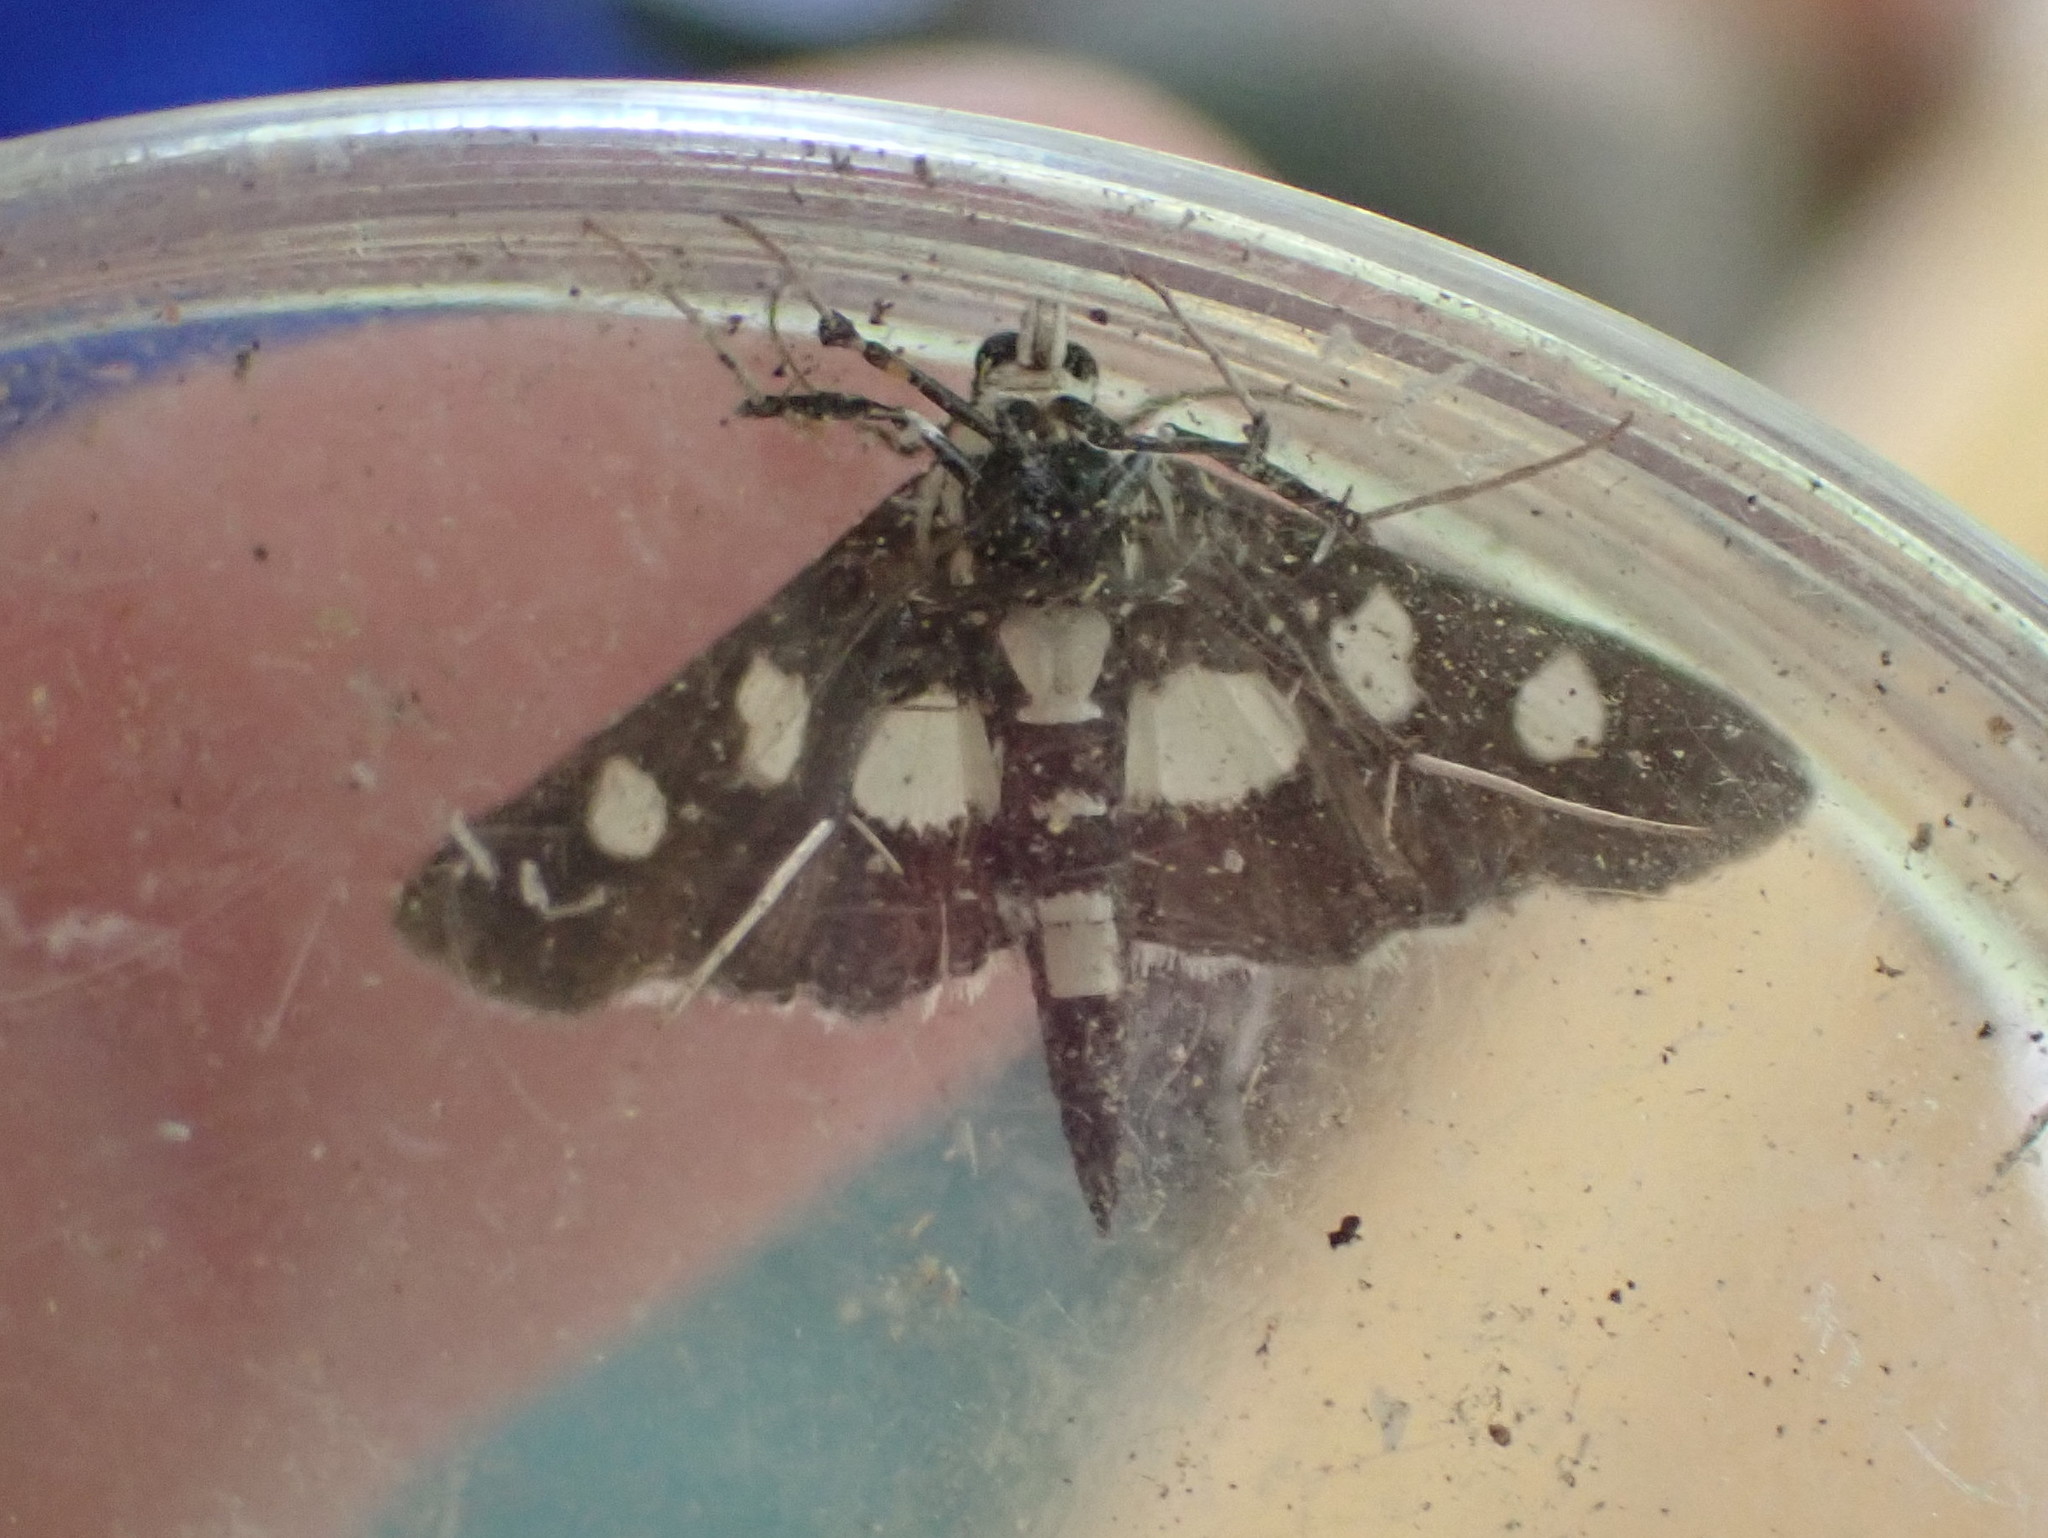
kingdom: Animalia
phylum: Arthropoda
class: Insecta
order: Lepidoptera
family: Crambidae
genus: Desmia
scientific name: Desmia funeralis
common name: Grape leaf folder moth
